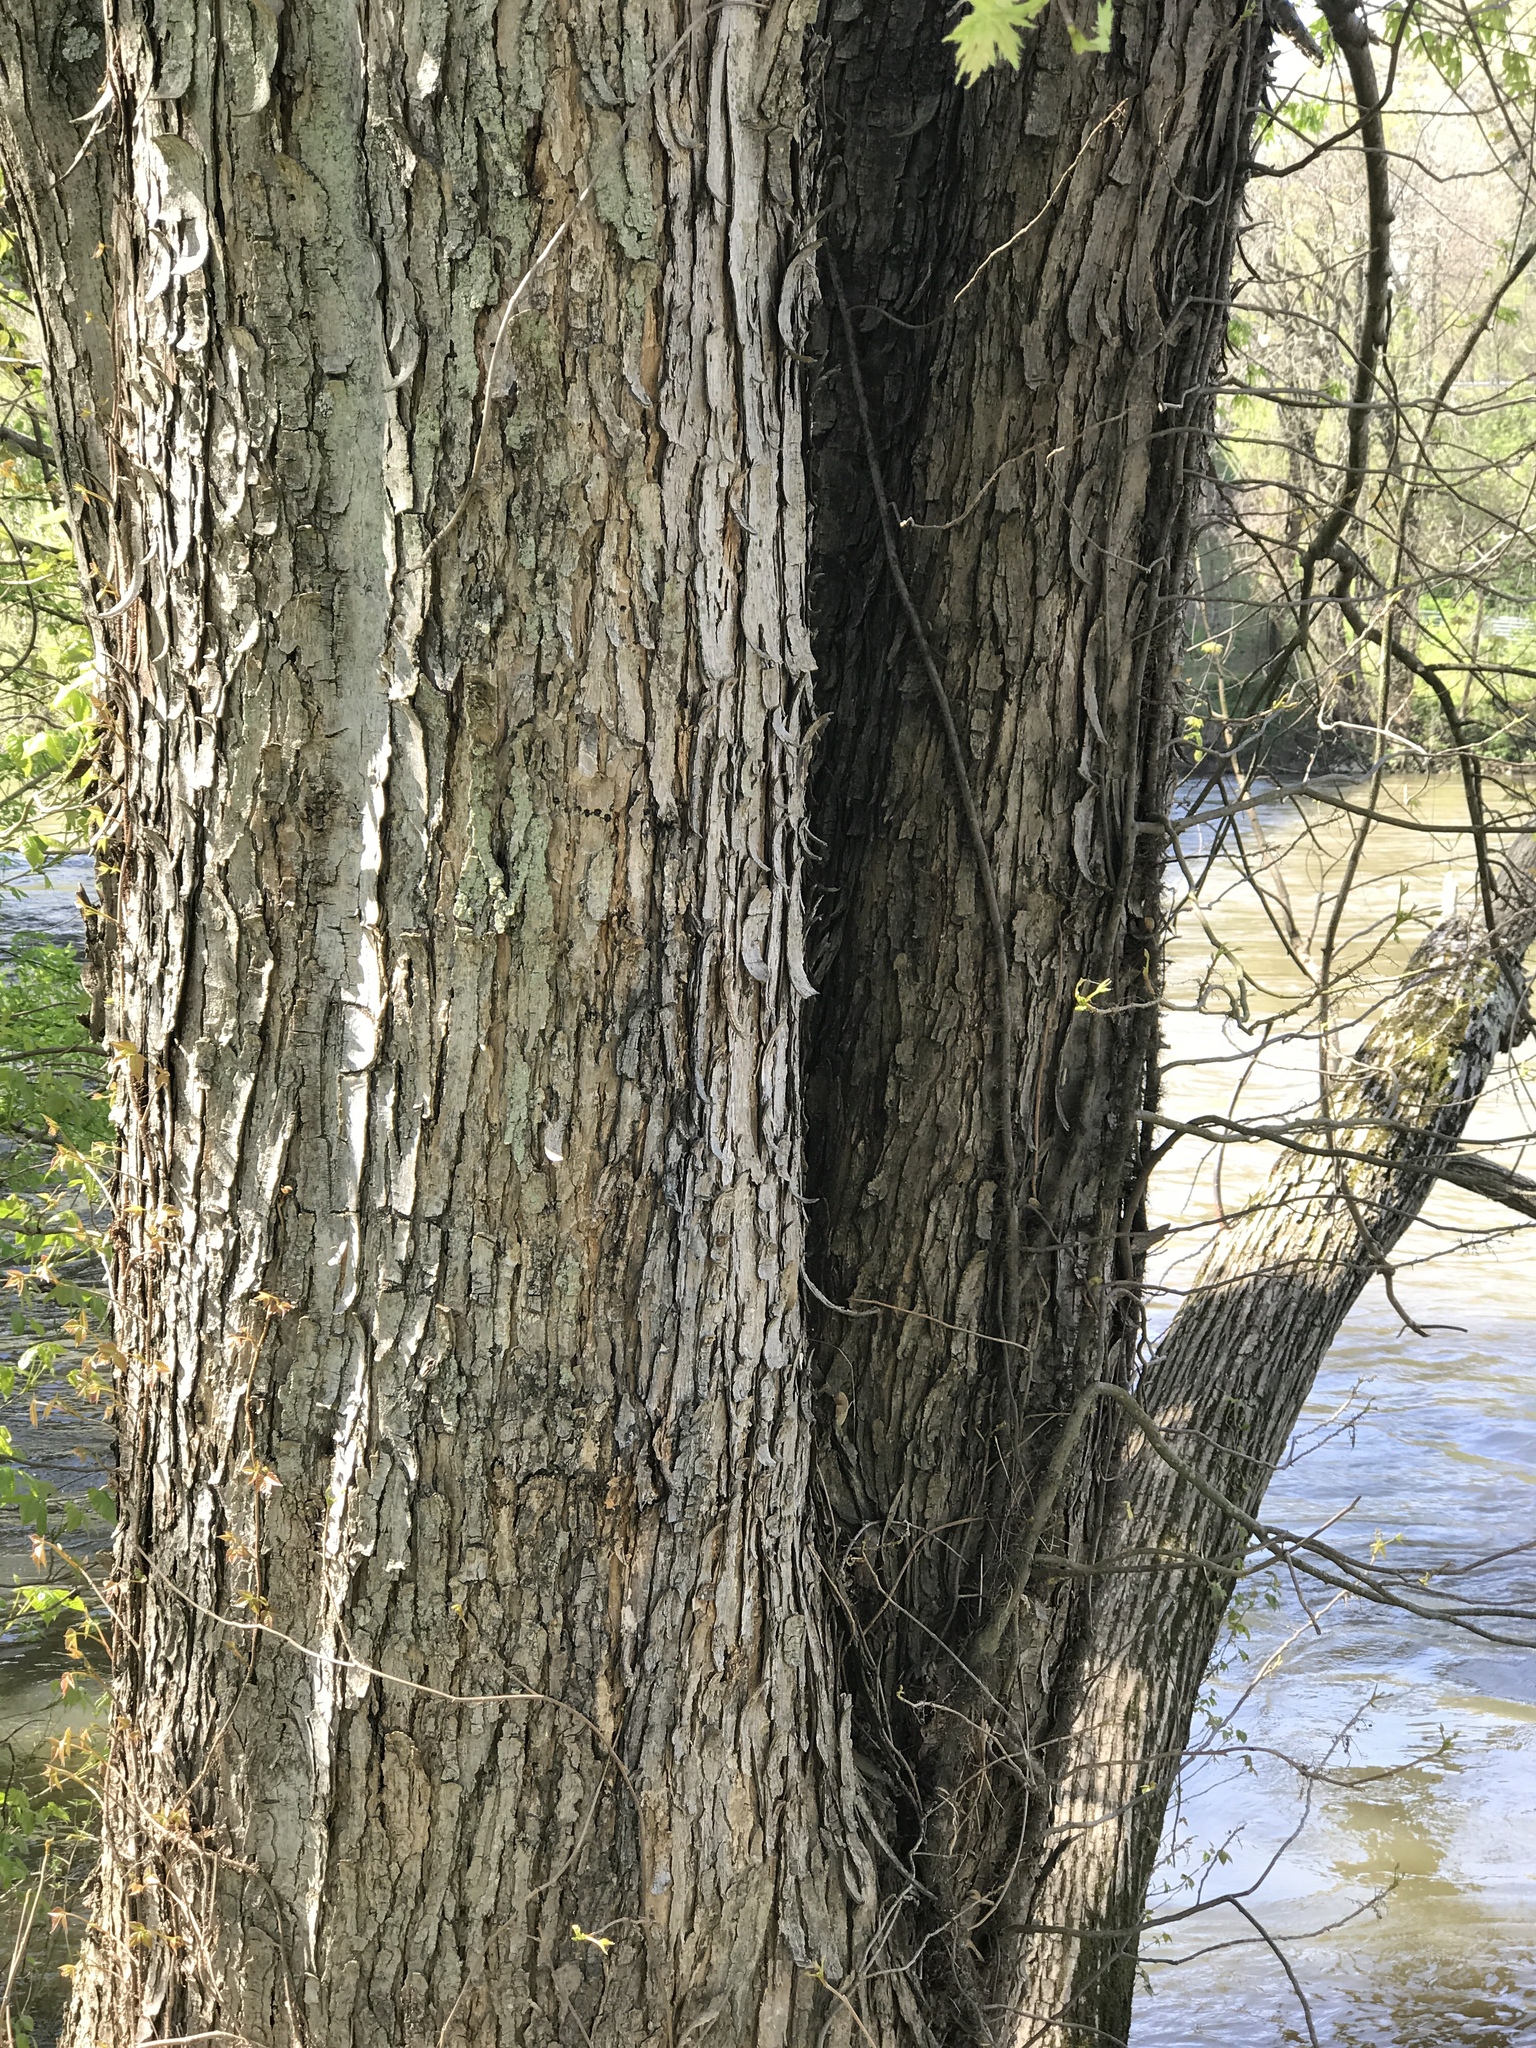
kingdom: Plantae
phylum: Tracheophyta
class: Magnoliopsida
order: Sapindales
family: Sapindaceae
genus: Acer
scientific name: Acer saccharinum
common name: Silver maple
